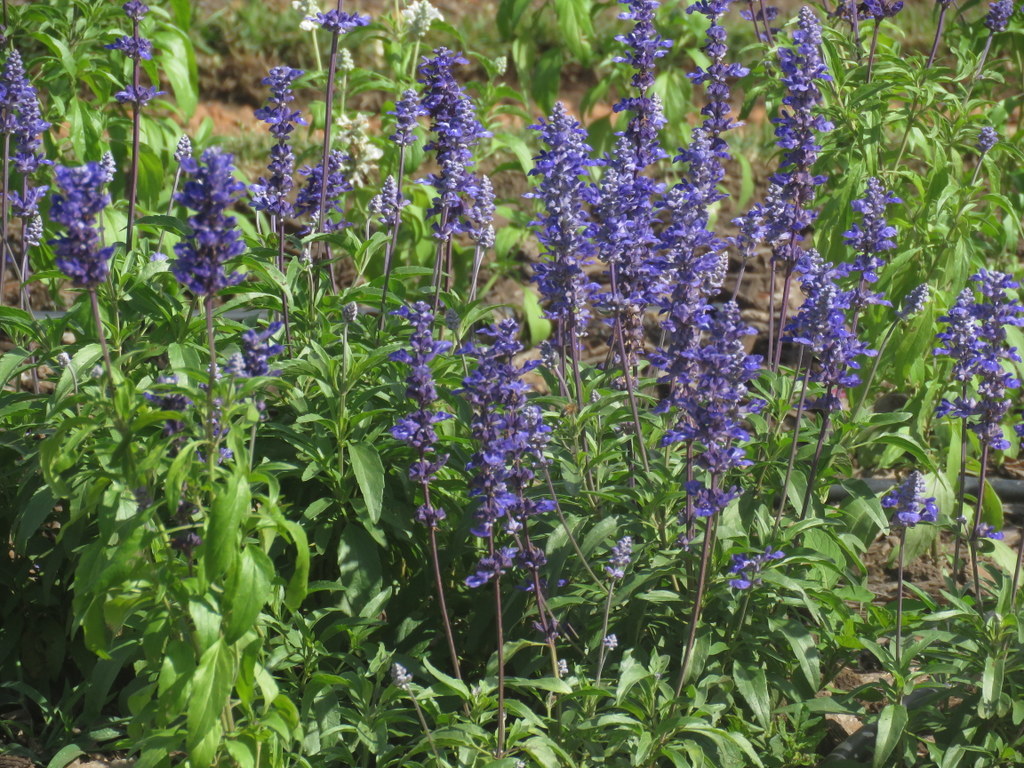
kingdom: Plantae
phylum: Tracheophyta
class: Magnoliopsida
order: Lamiales
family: Lamiaceae
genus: Salvia
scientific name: Salvia guaranitica
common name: Anise-scented sage
